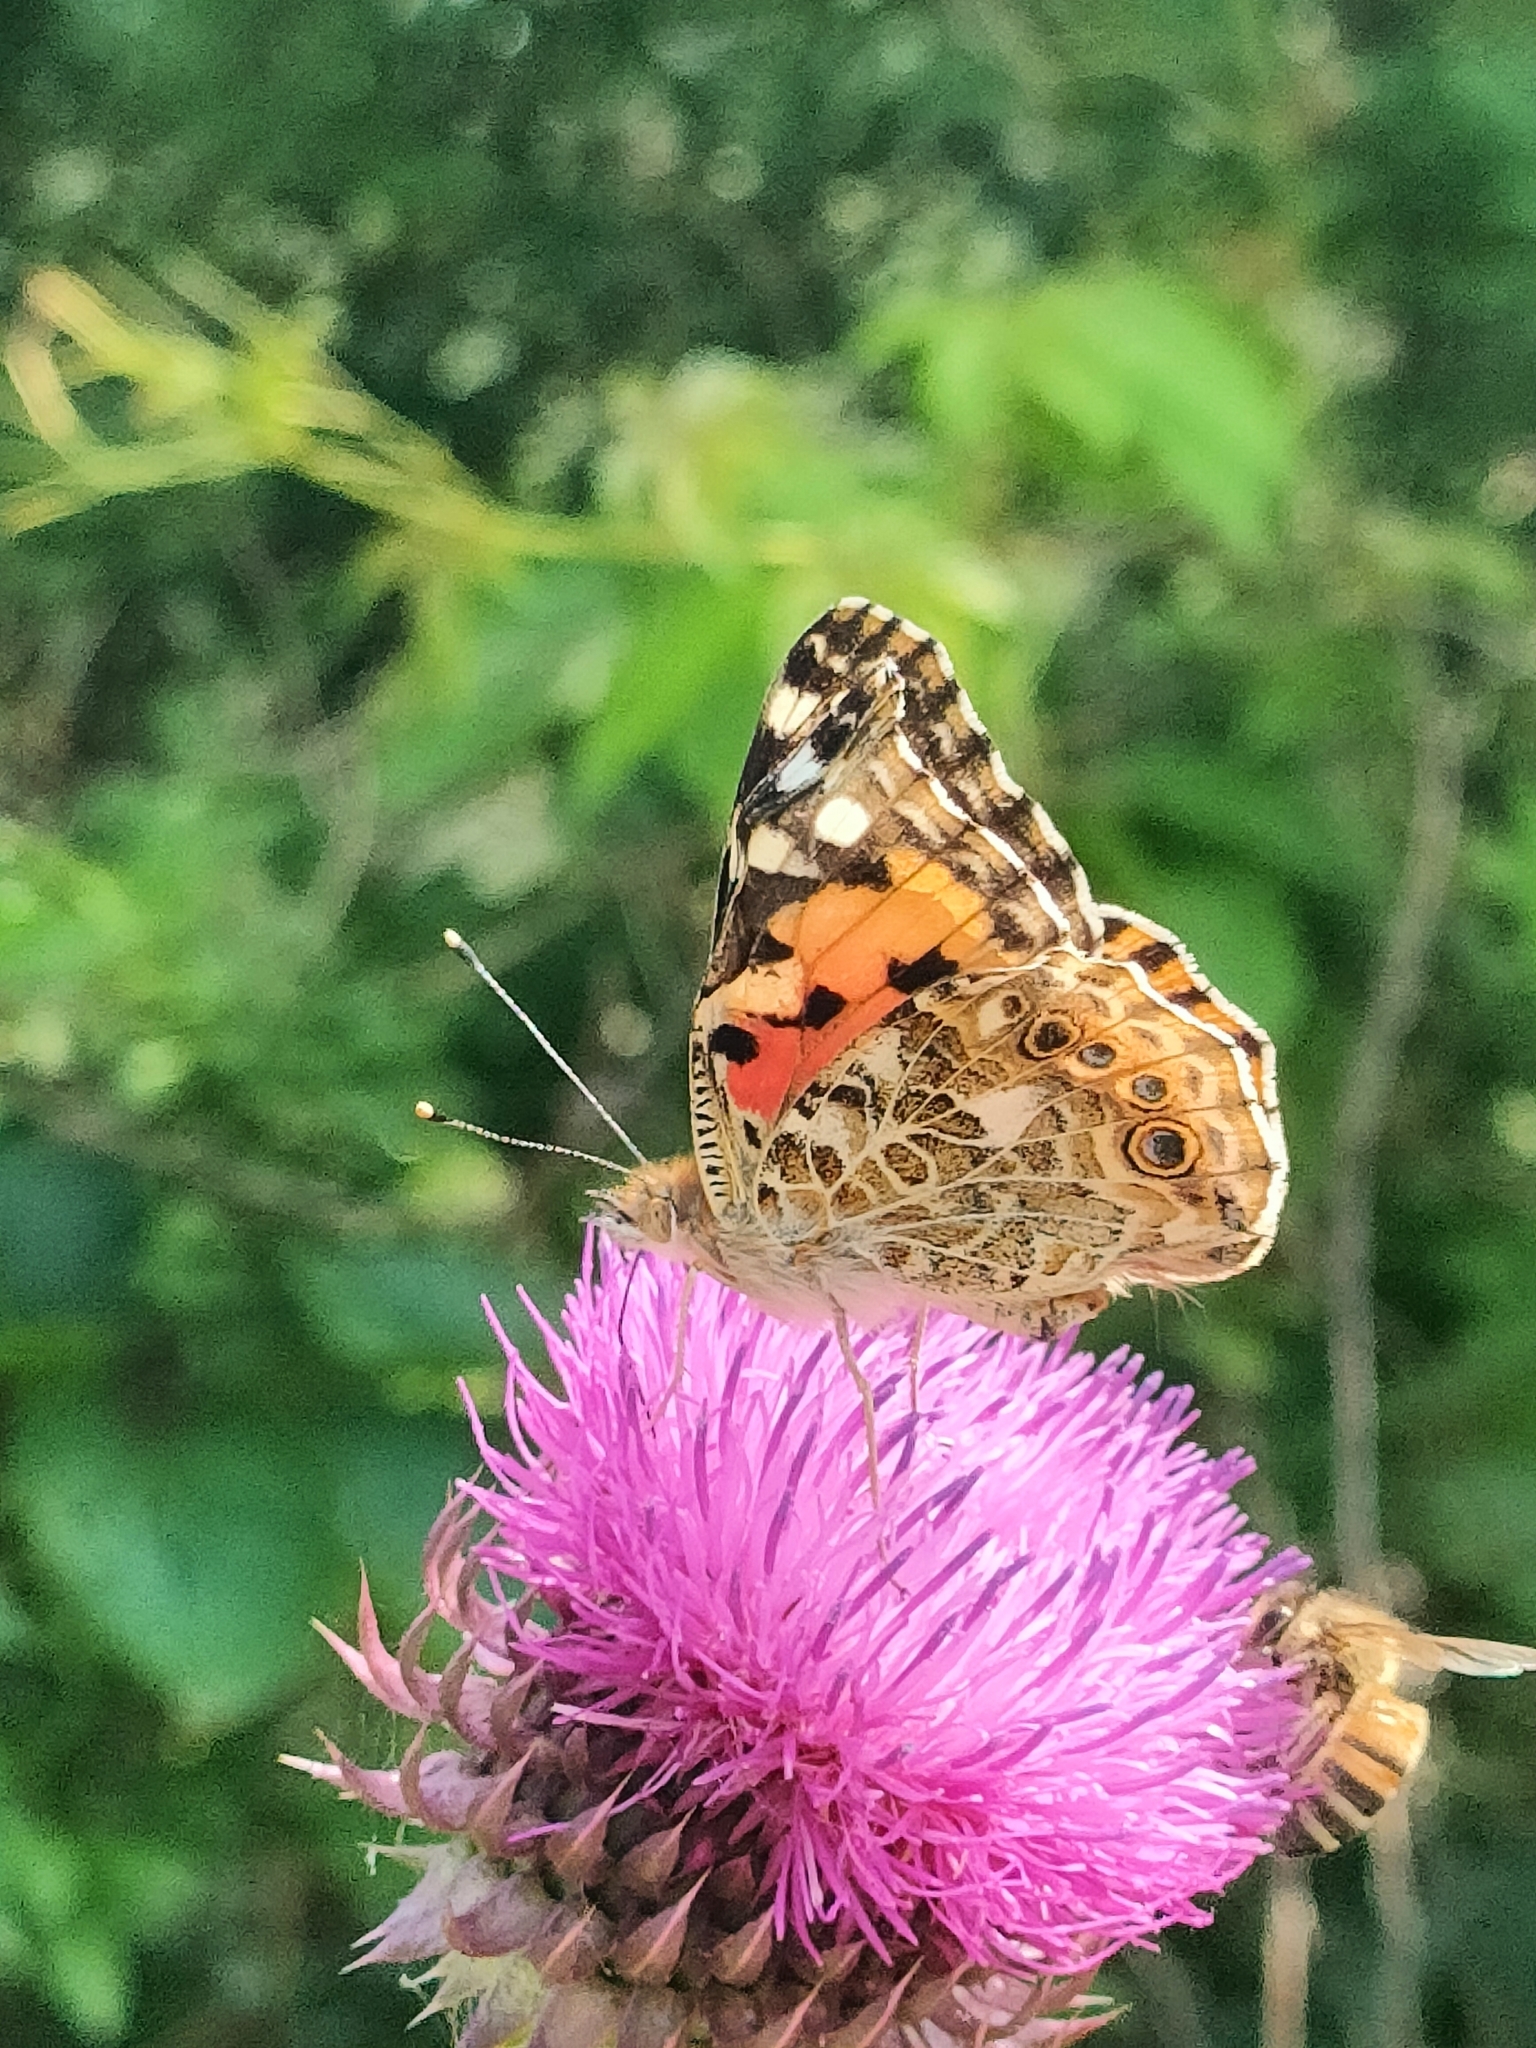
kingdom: Animalia
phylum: Arthropoda
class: Insecta
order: Lepidoptera
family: Nymphalidae
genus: Vanessa
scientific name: Vanessa cardui
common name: Painted lady
